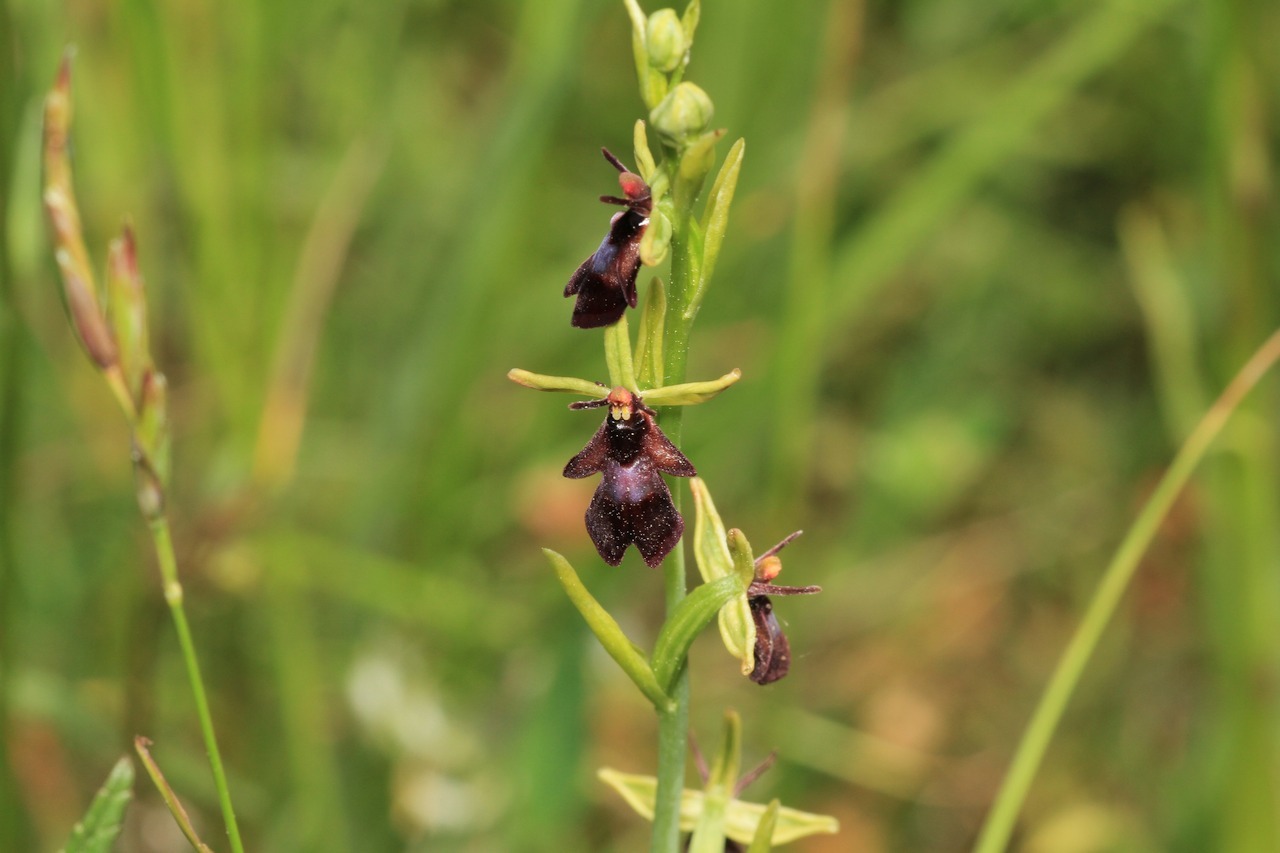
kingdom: Plantae
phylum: Tracheophyta
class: Liliopsida
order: Asparagales
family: Orchidaceae
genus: Ophrys
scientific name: Ophrys insectifera
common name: Fly orchid
